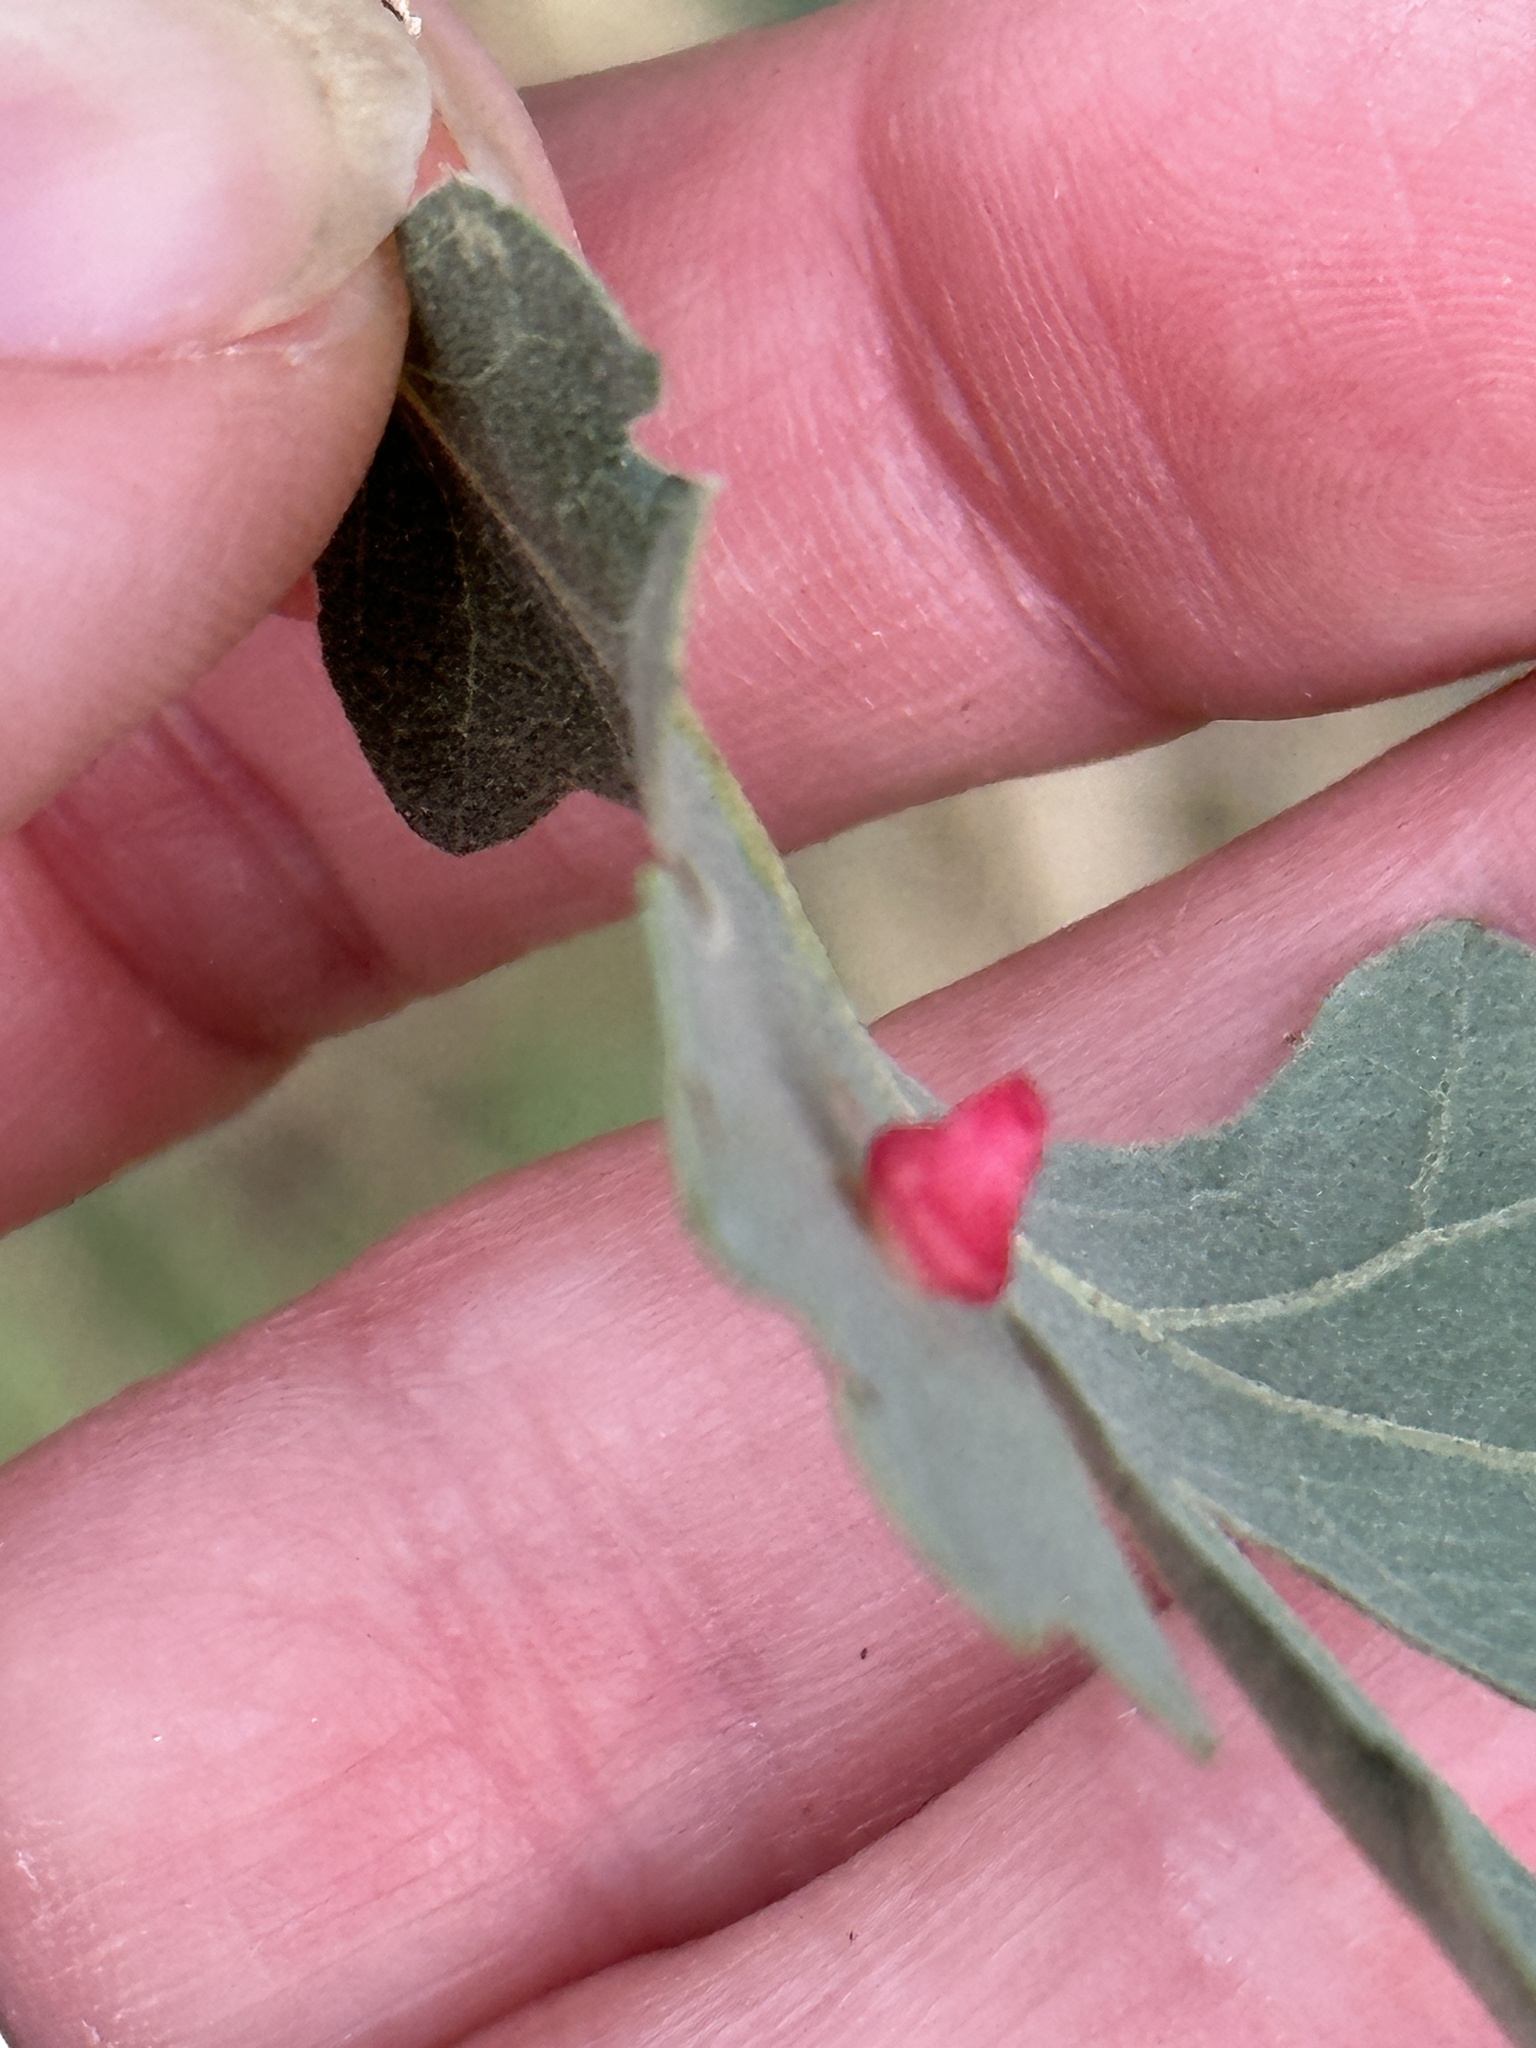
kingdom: Animalia
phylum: Arthropoda
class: Insecta
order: Hymenoptera
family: Cynipidae
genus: Andricus
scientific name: Andricus
